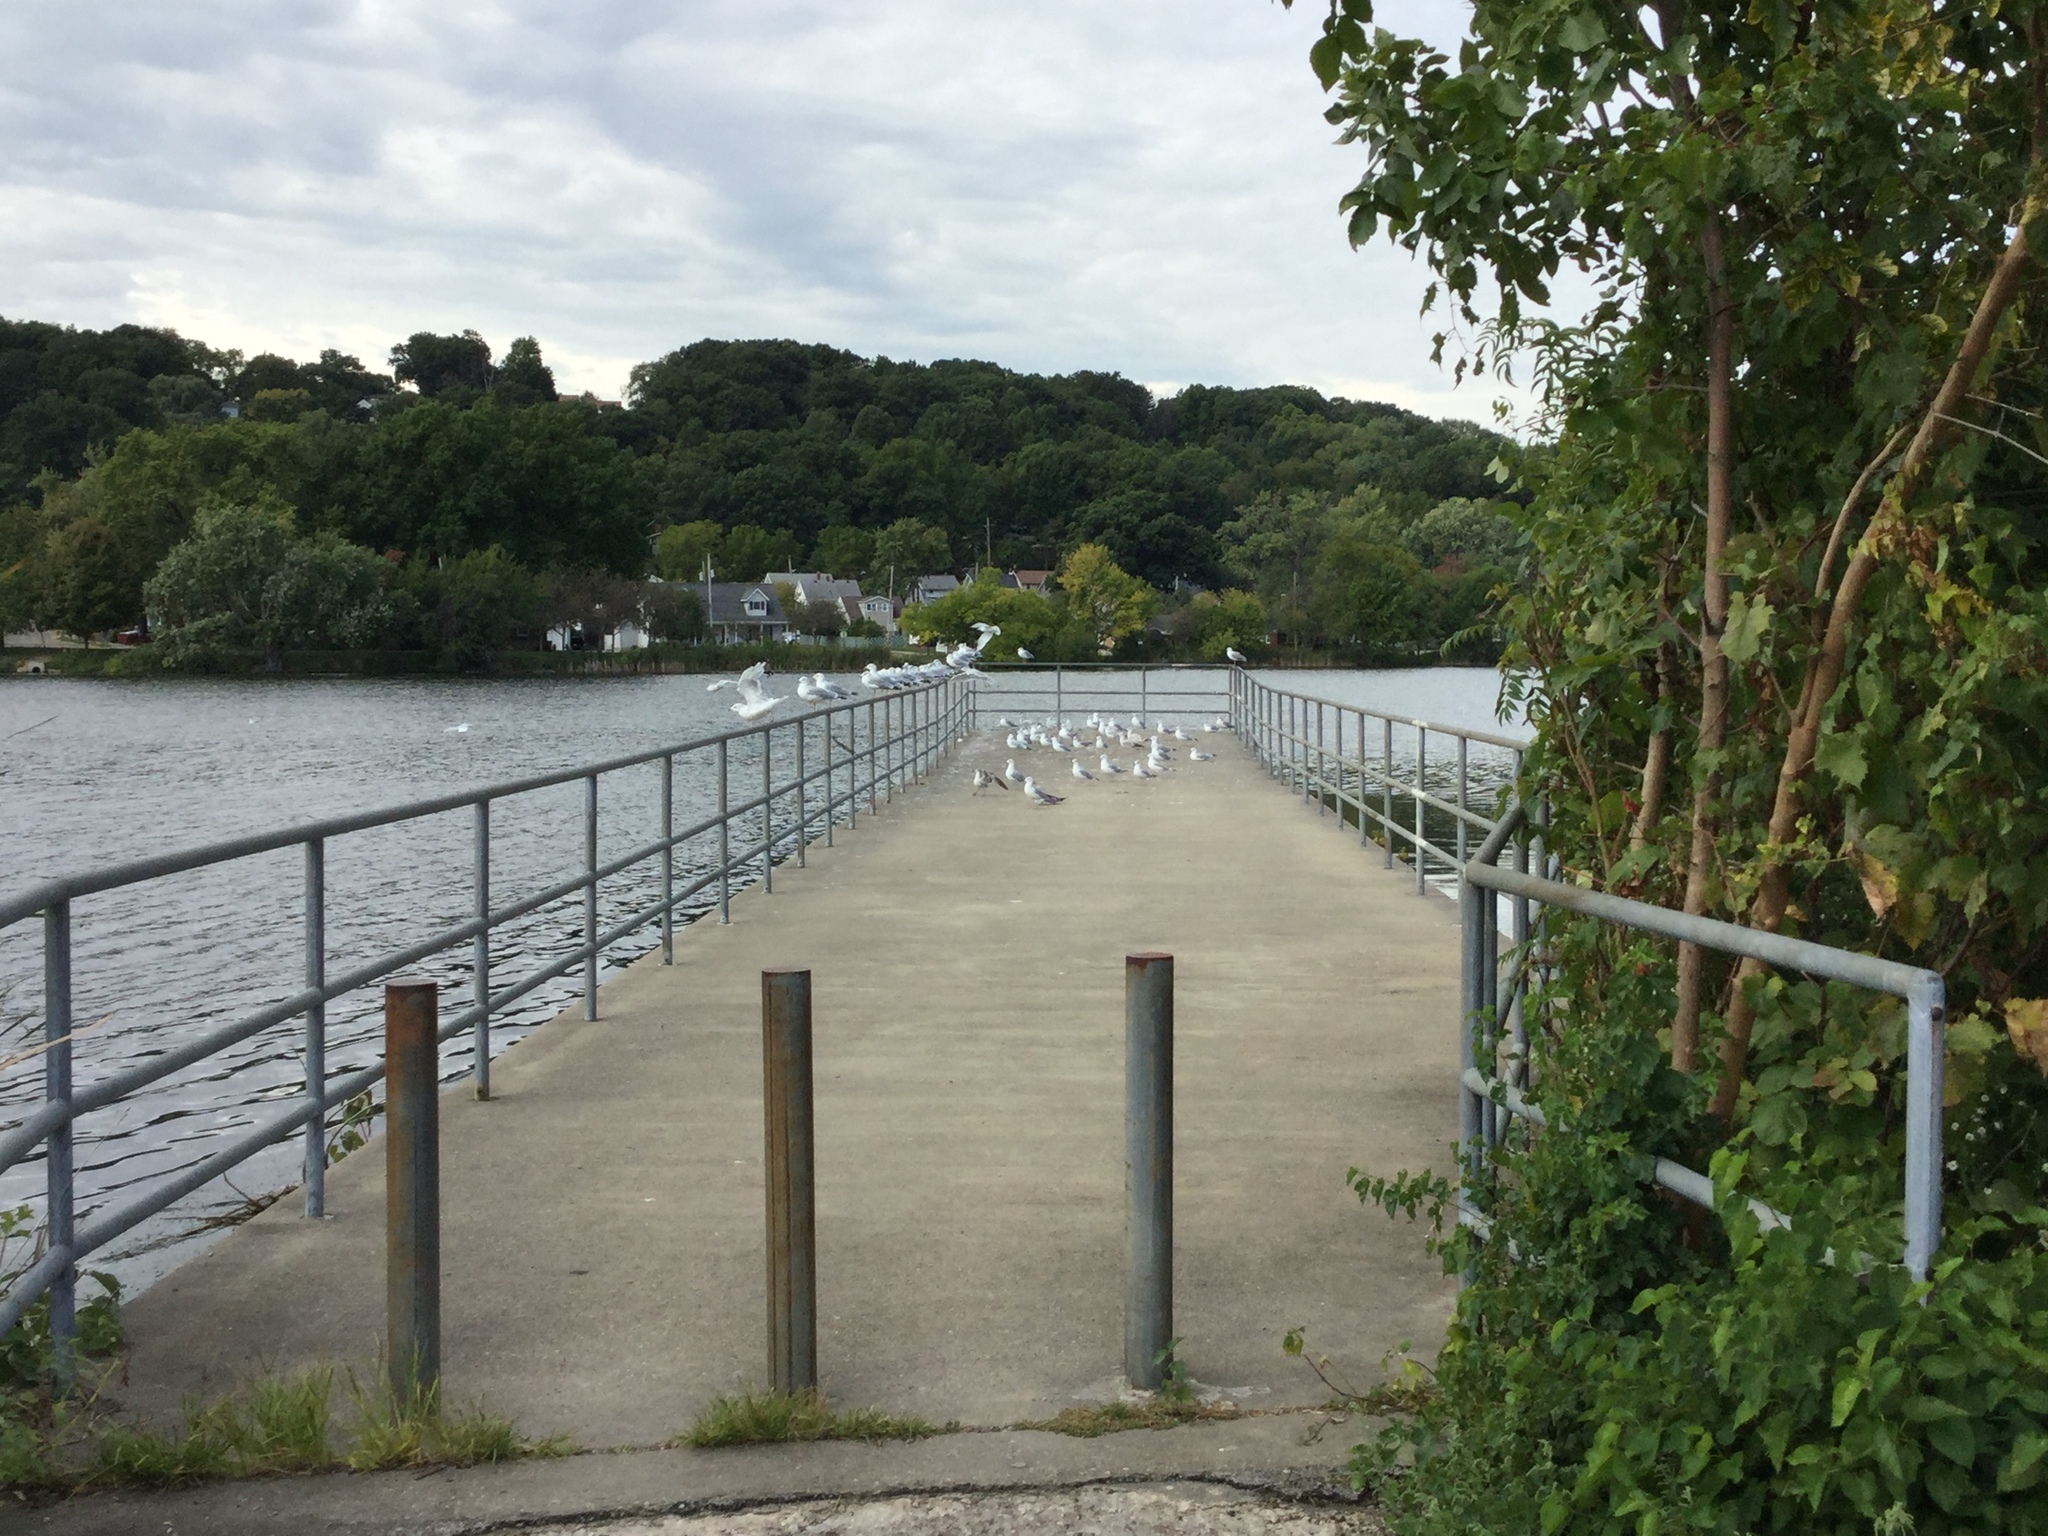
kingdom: Animalia
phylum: Chordata
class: Aves
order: Charadriiformes
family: Laridae
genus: Larus
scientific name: Larus delawarensis
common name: Ring-billed gull
